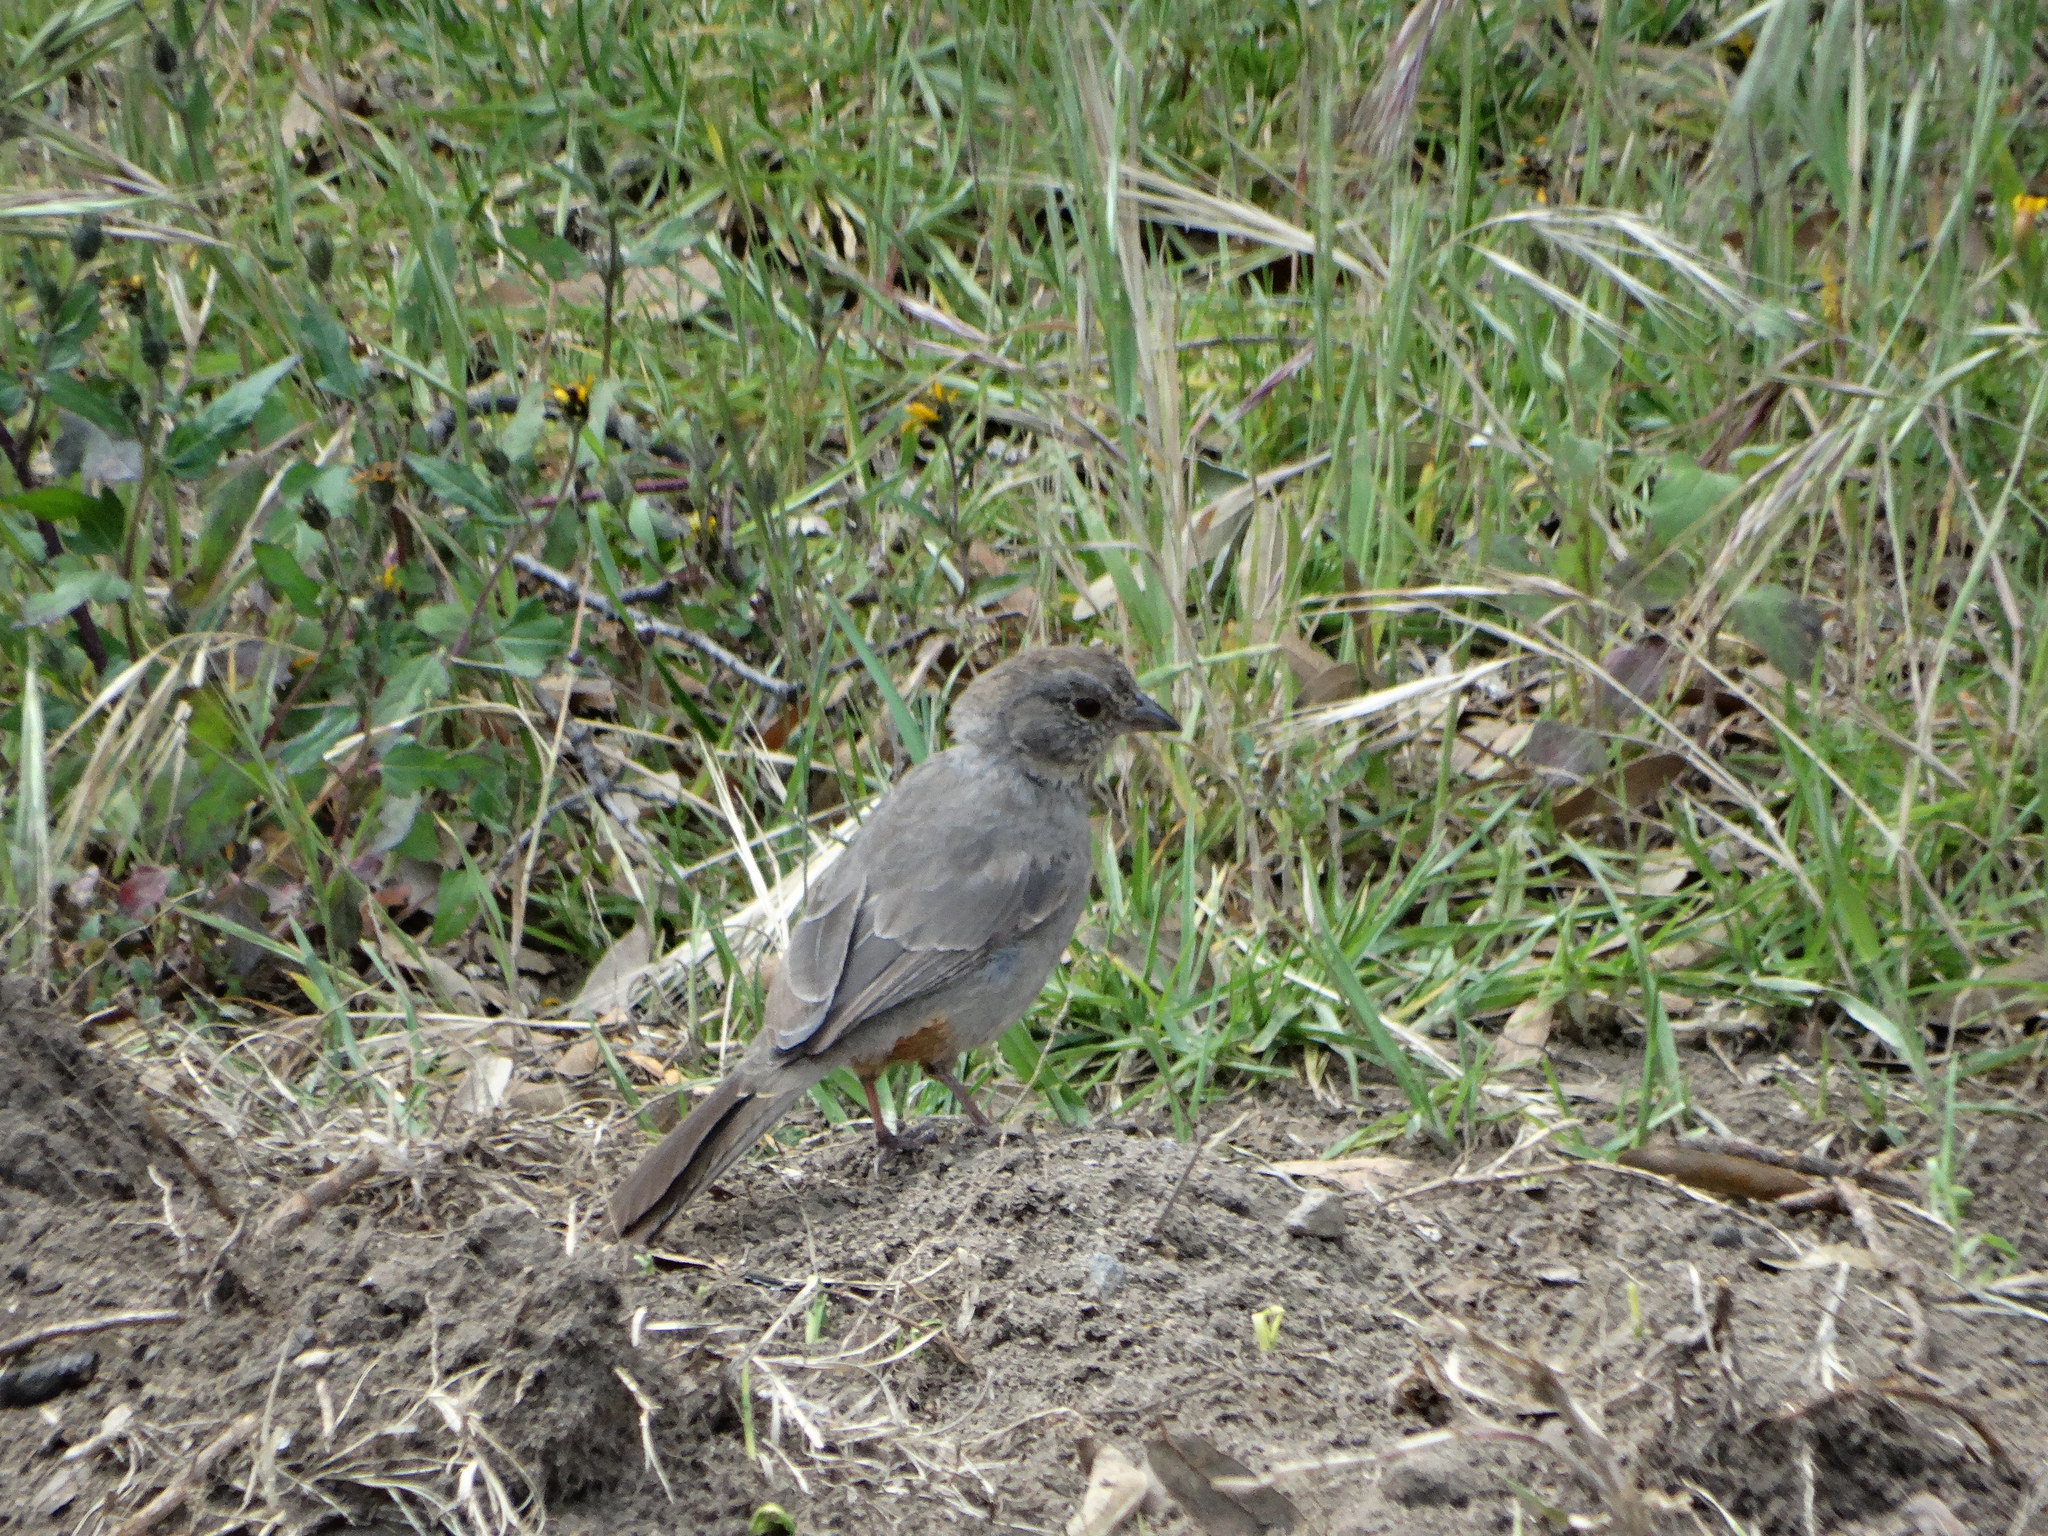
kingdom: Animalia
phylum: Chordata
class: Aves
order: Passeriformes
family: Passerellidae
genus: Melozone
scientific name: Melozone fusca
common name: Canyon towhee
